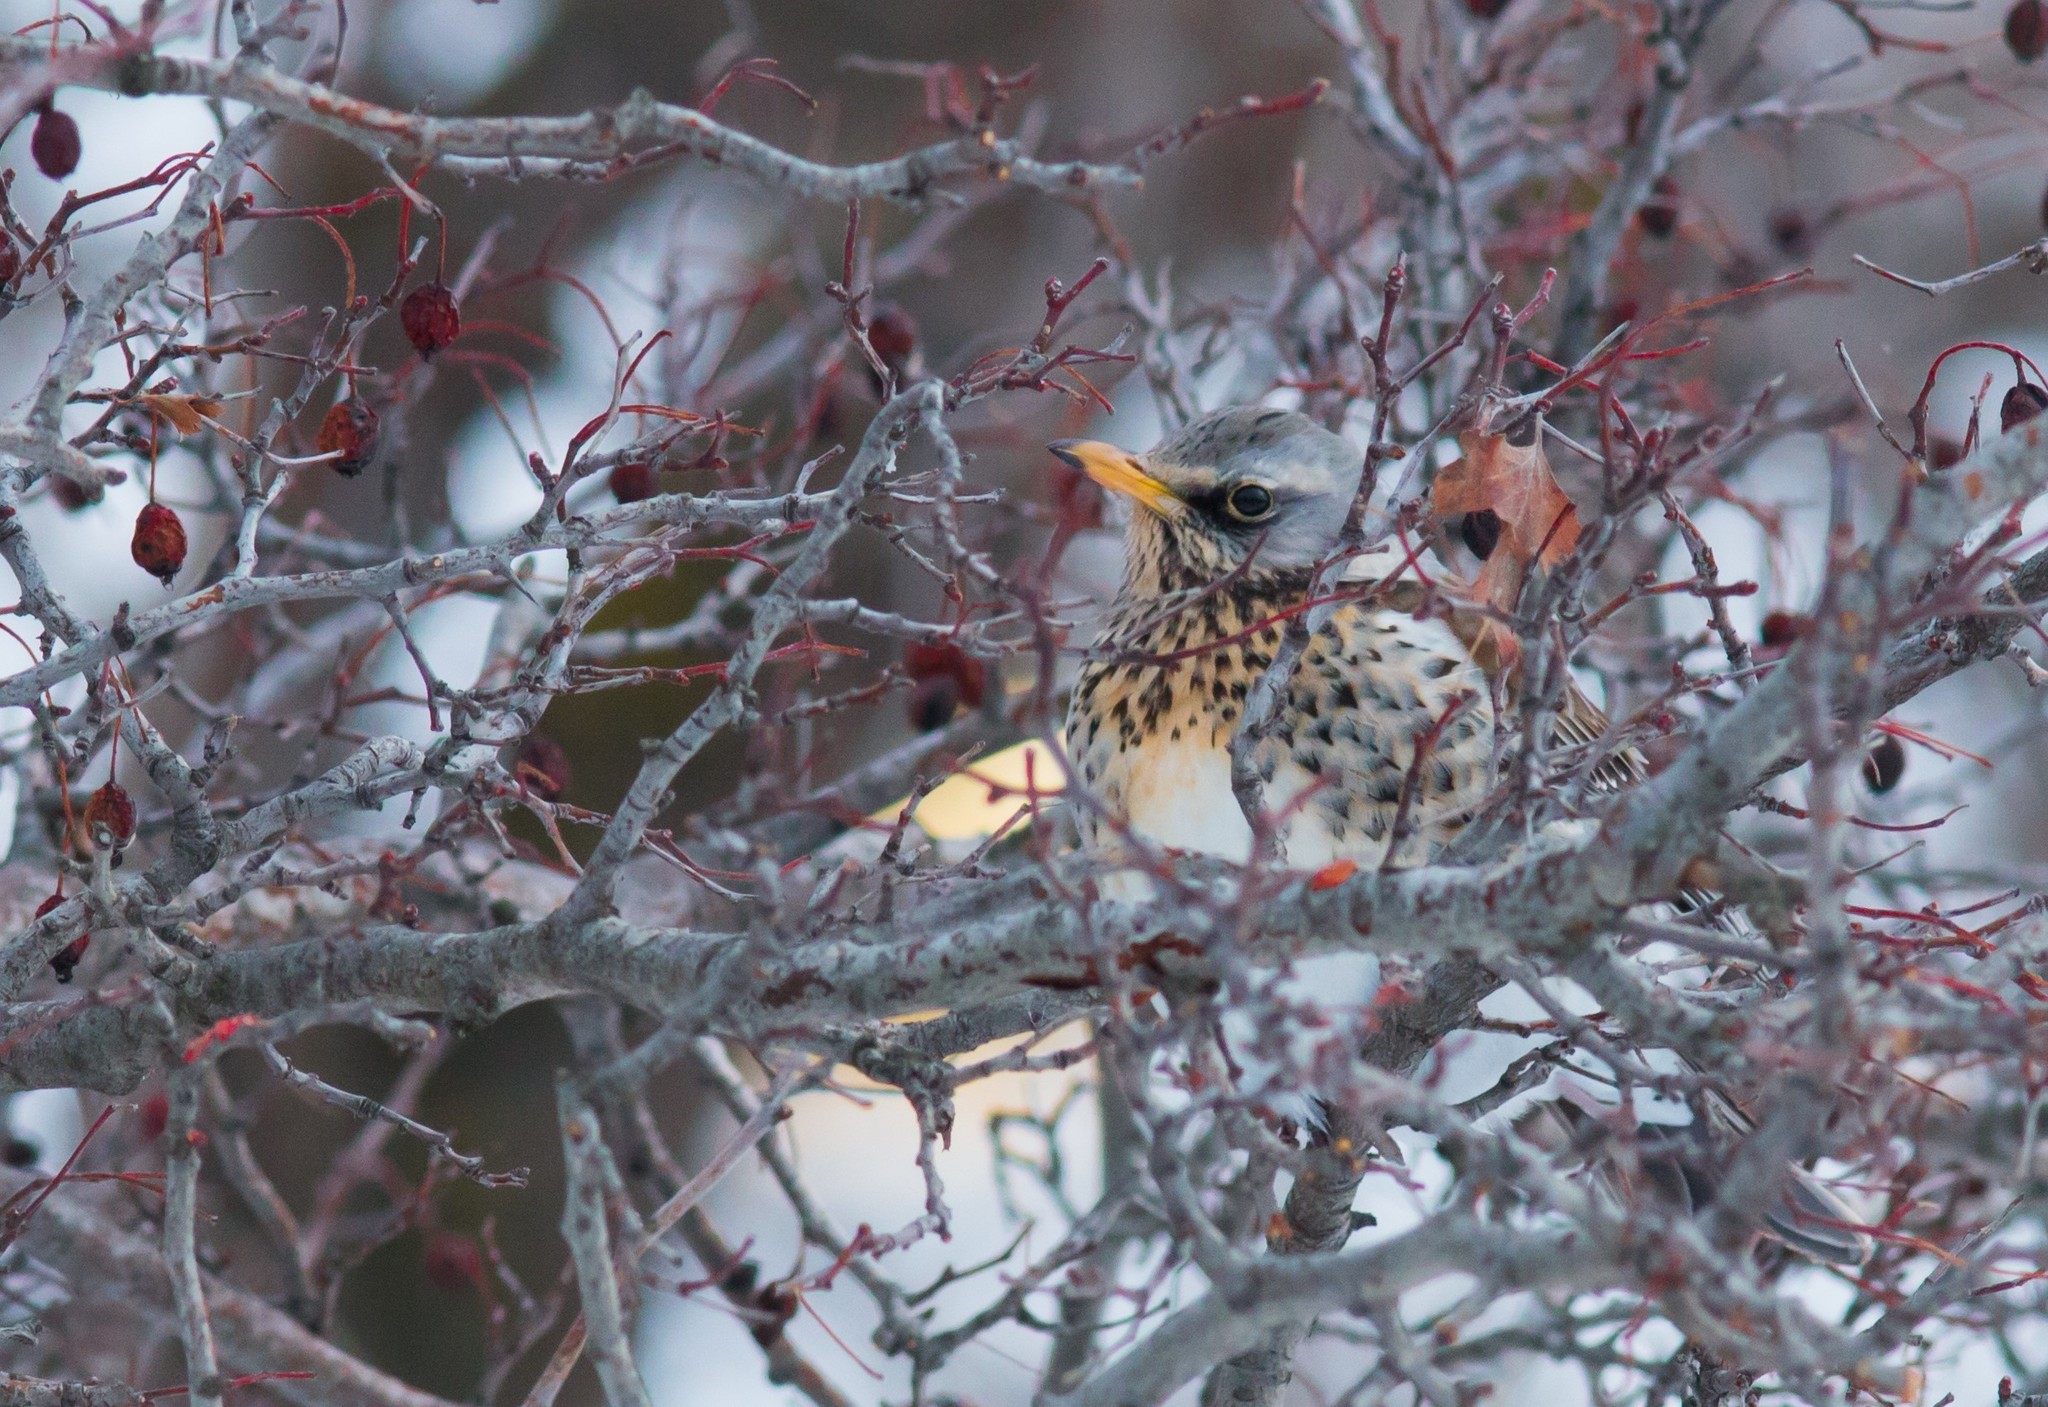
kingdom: Animalia
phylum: Chordata
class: Aves
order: Passeriformes
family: Turdidae
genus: Turdus
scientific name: Turdus pilaris
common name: Fieldfare
